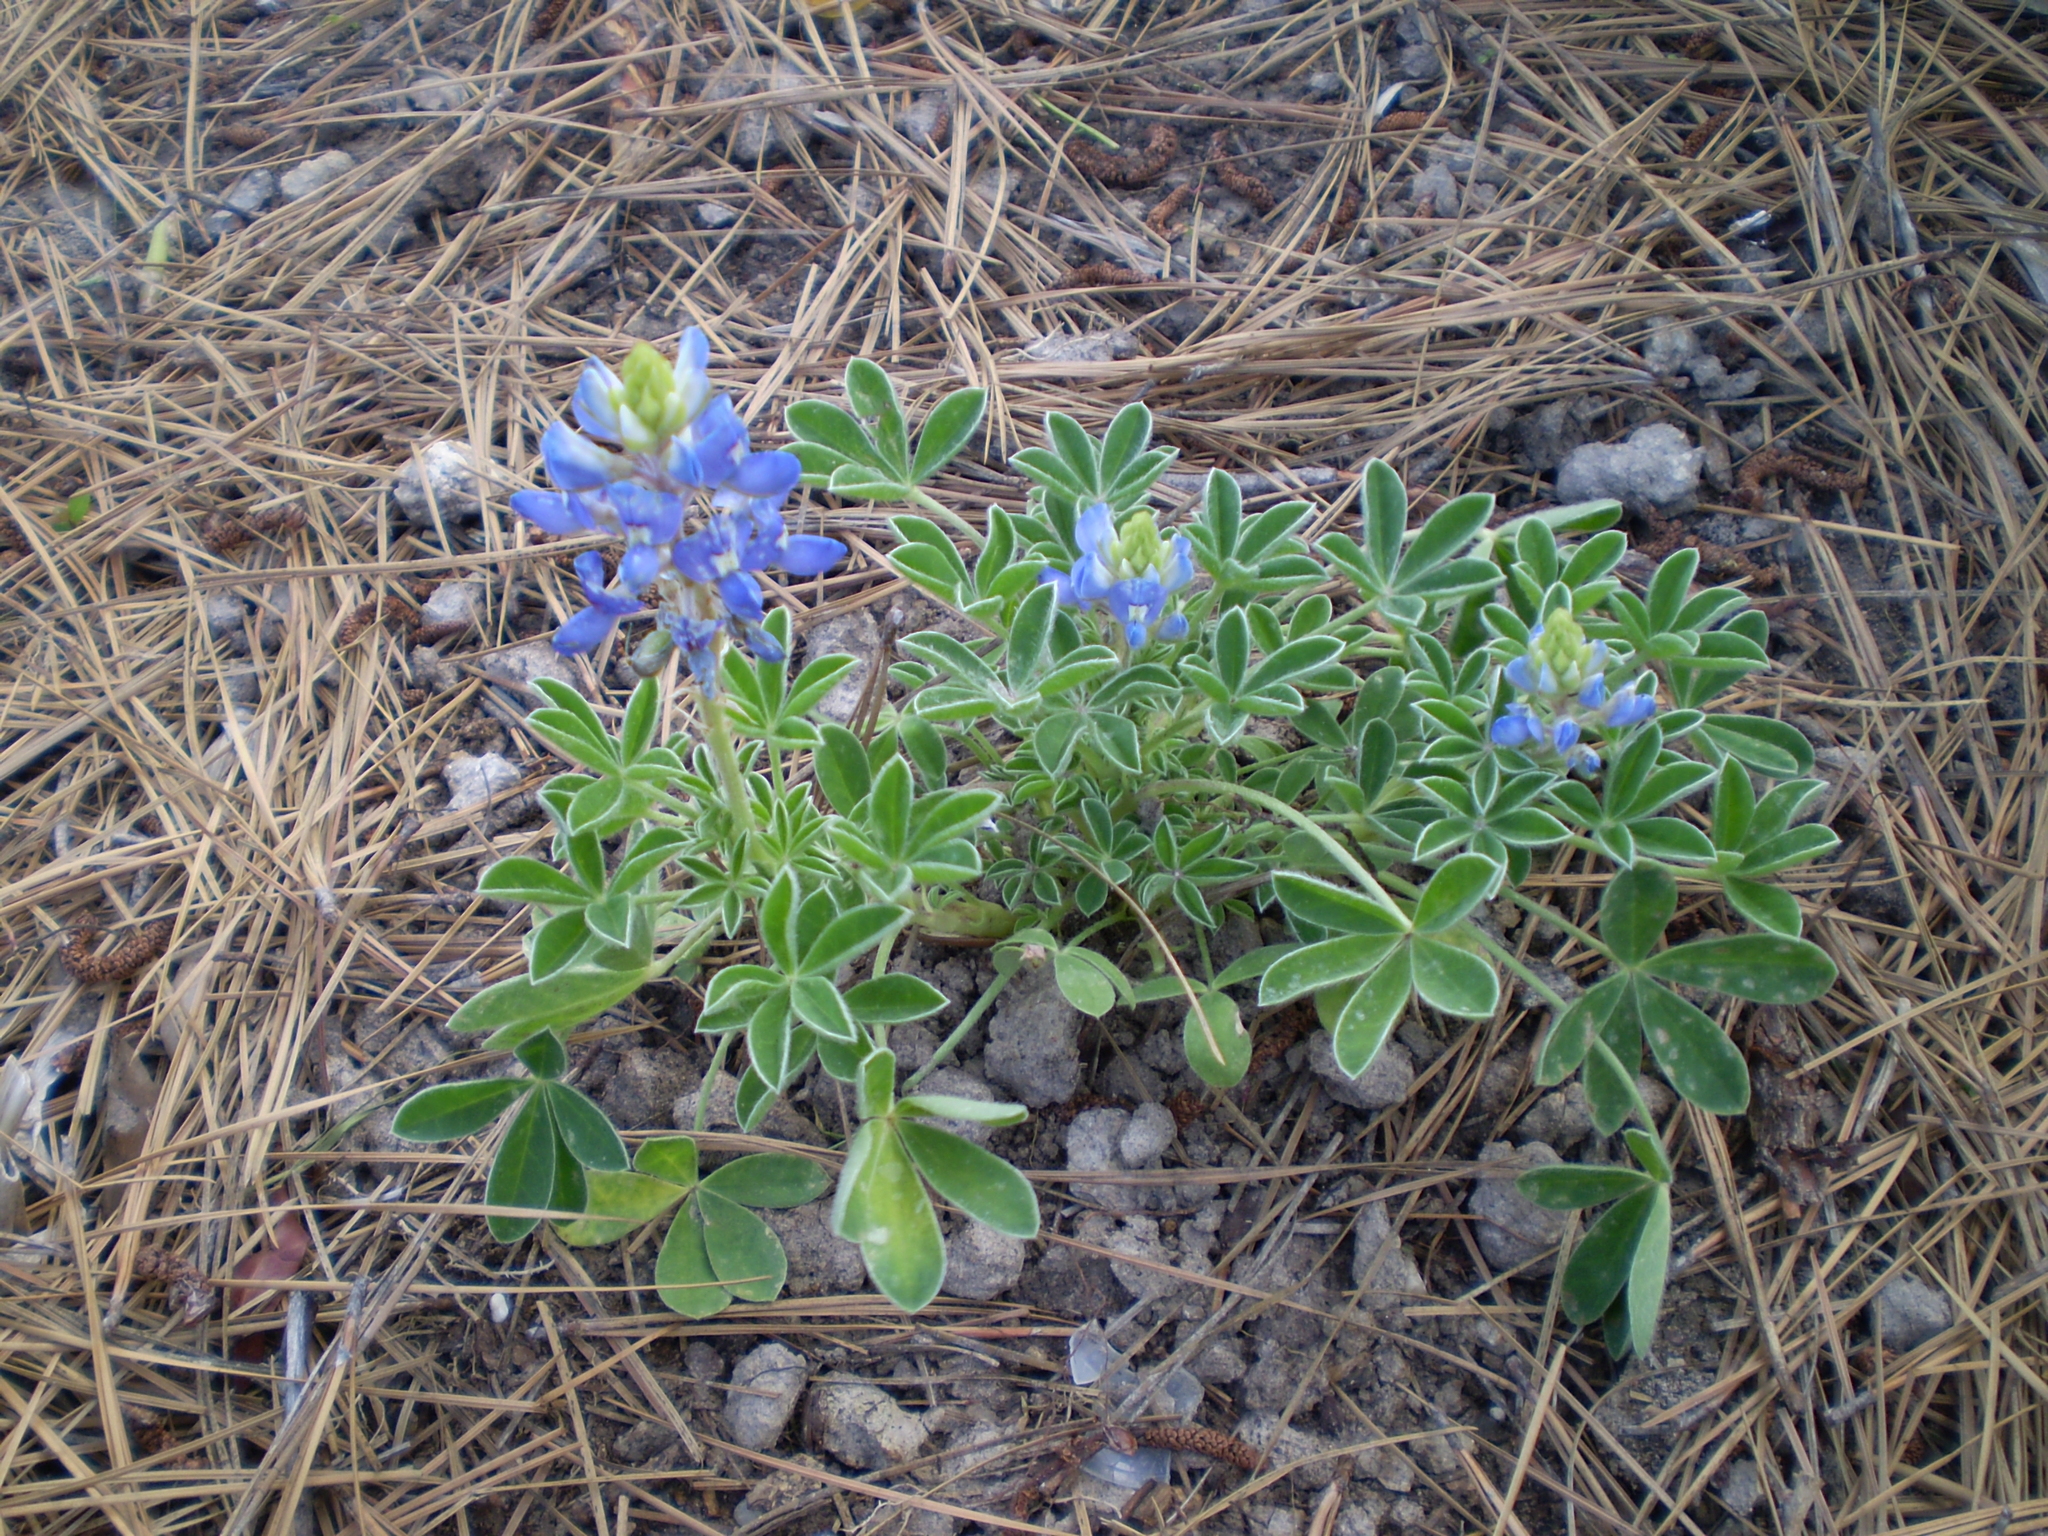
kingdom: Plantae
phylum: Tracheophyta
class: Magnoliopsida
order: Fabales
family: Fabaceae
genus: Lupinus
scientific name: Lupinus texensis
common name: Texas bluebonnet
